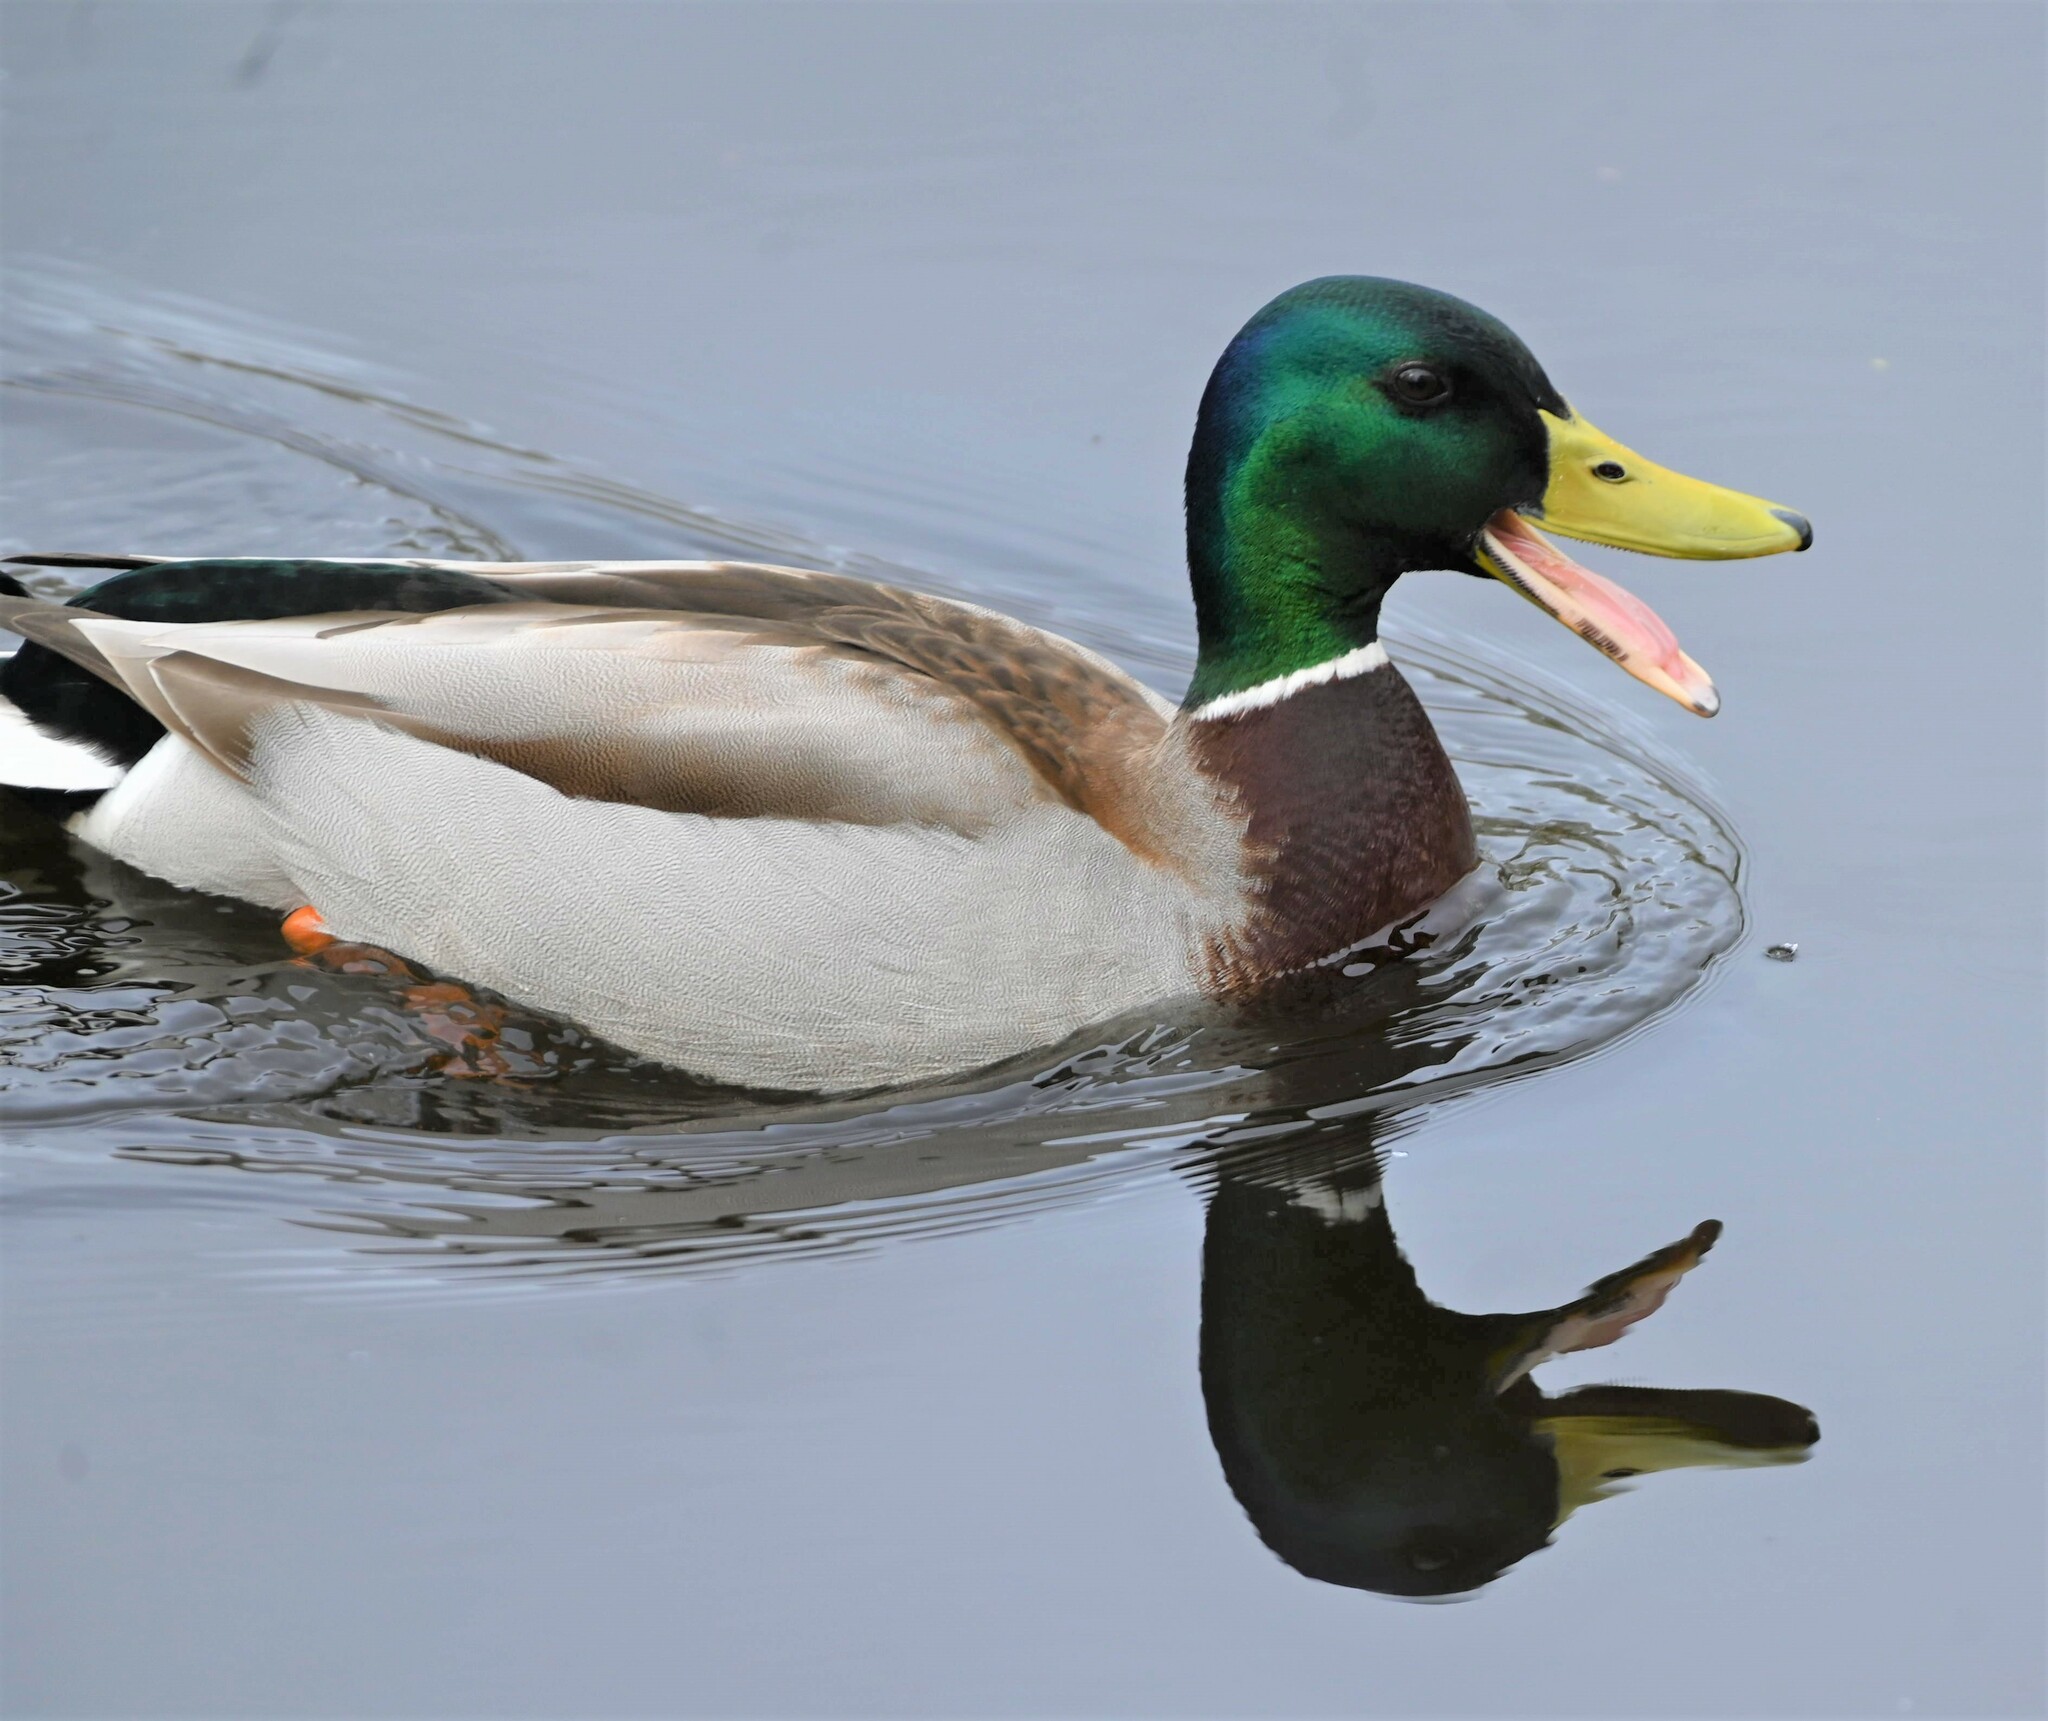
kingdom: Animalia
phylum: Chordata
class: Aves
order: Anseriformes
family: Anatidae
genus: Anas
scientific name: Anas platyrhynchos
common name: Mallard
